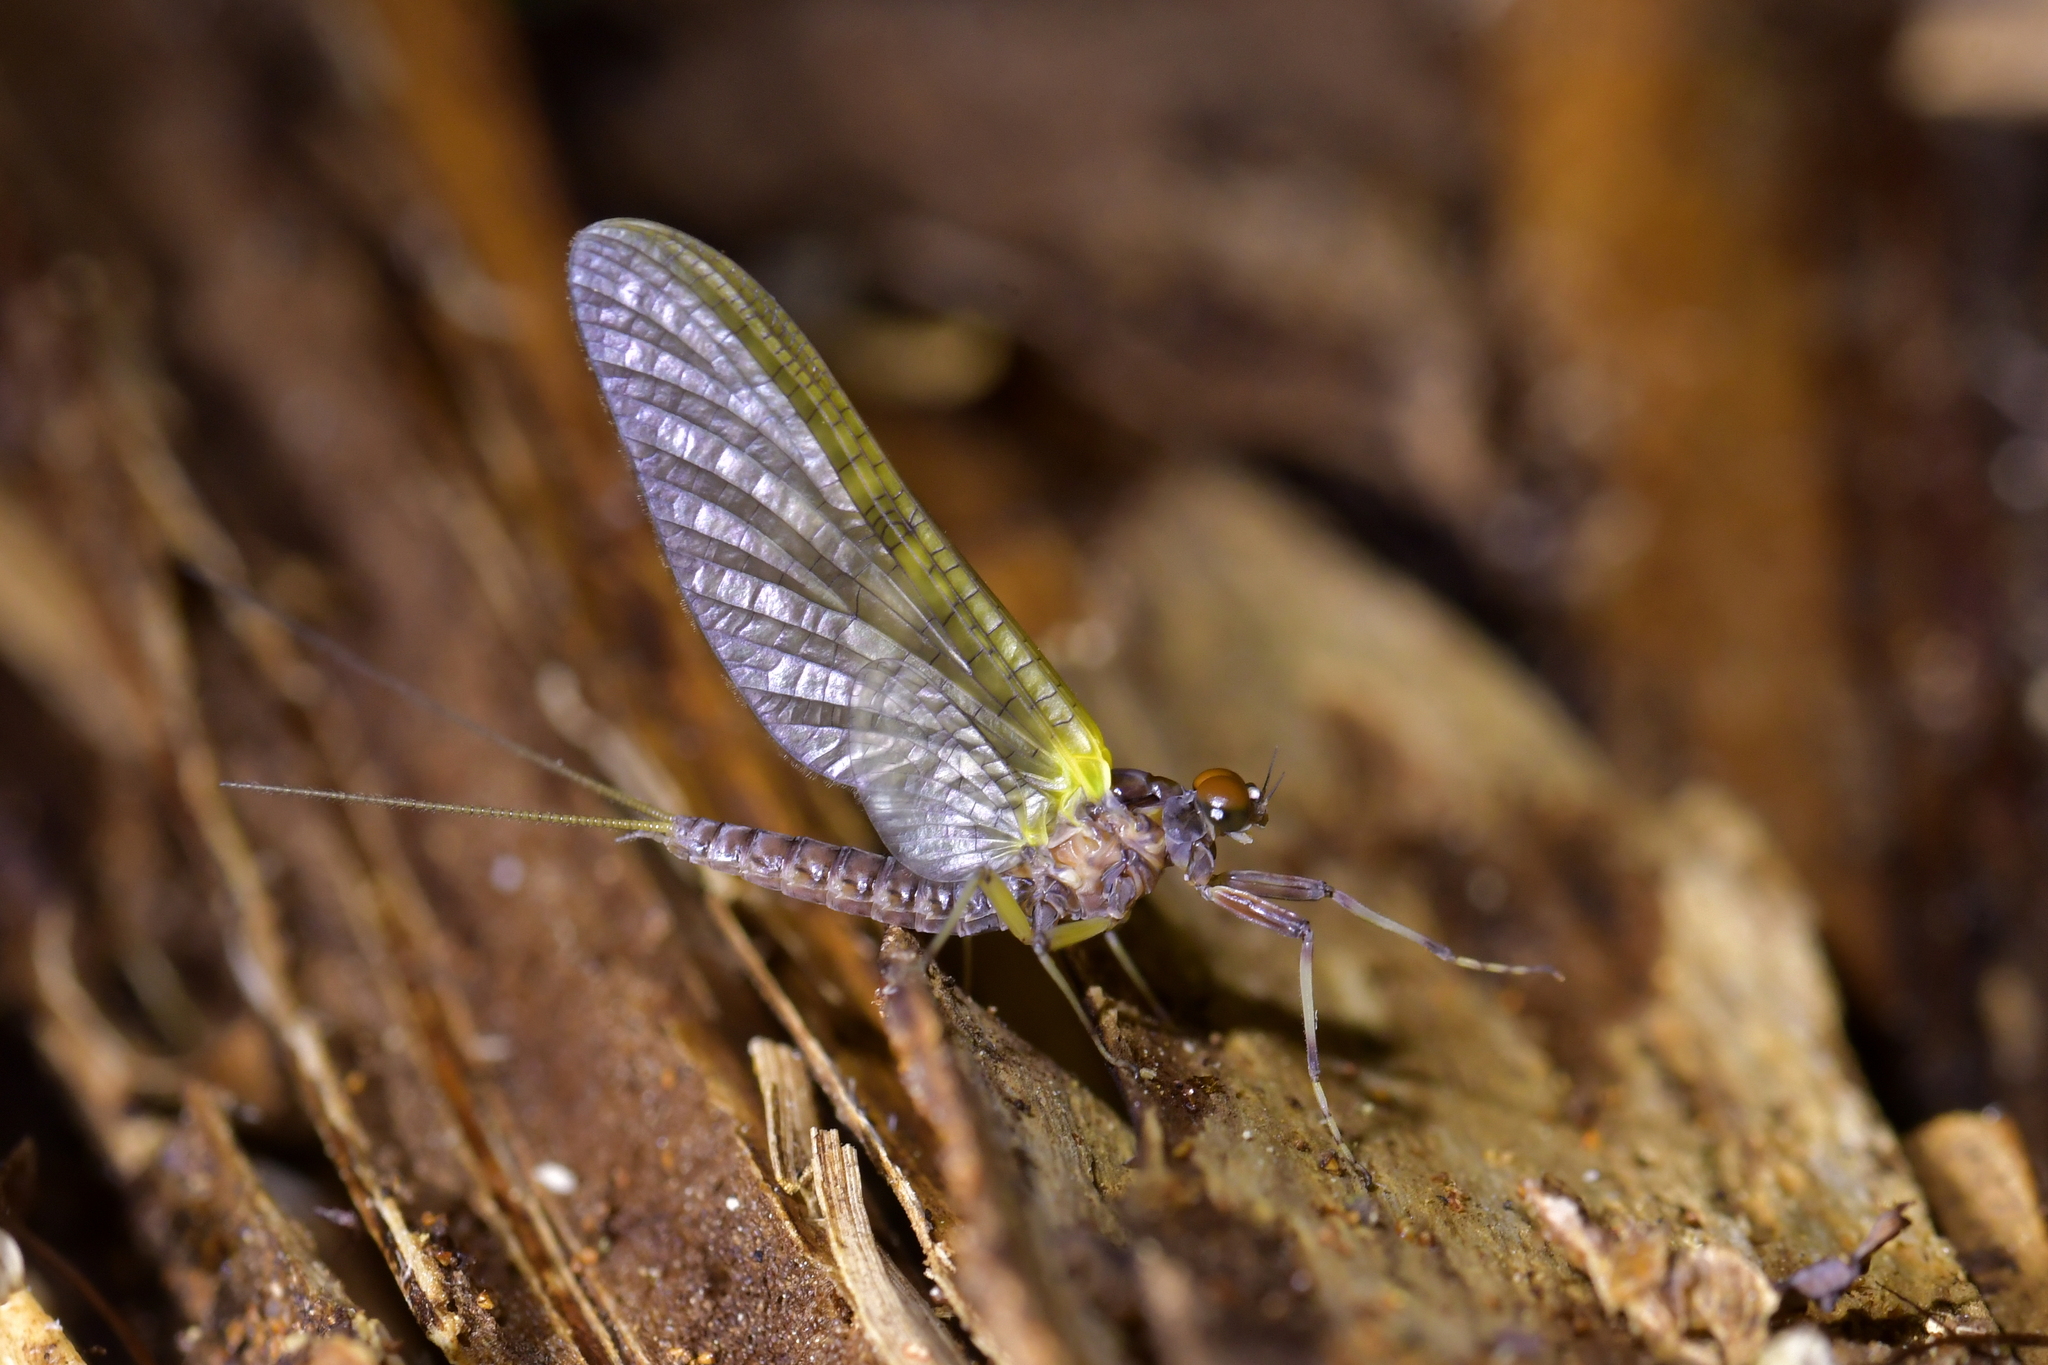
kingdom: Animalia
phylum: Arthropoda
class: Insecta
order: Ephemeroptera
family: Coloburiscidae
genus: Coloburiscus
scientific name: Coloburiscus humeralis
